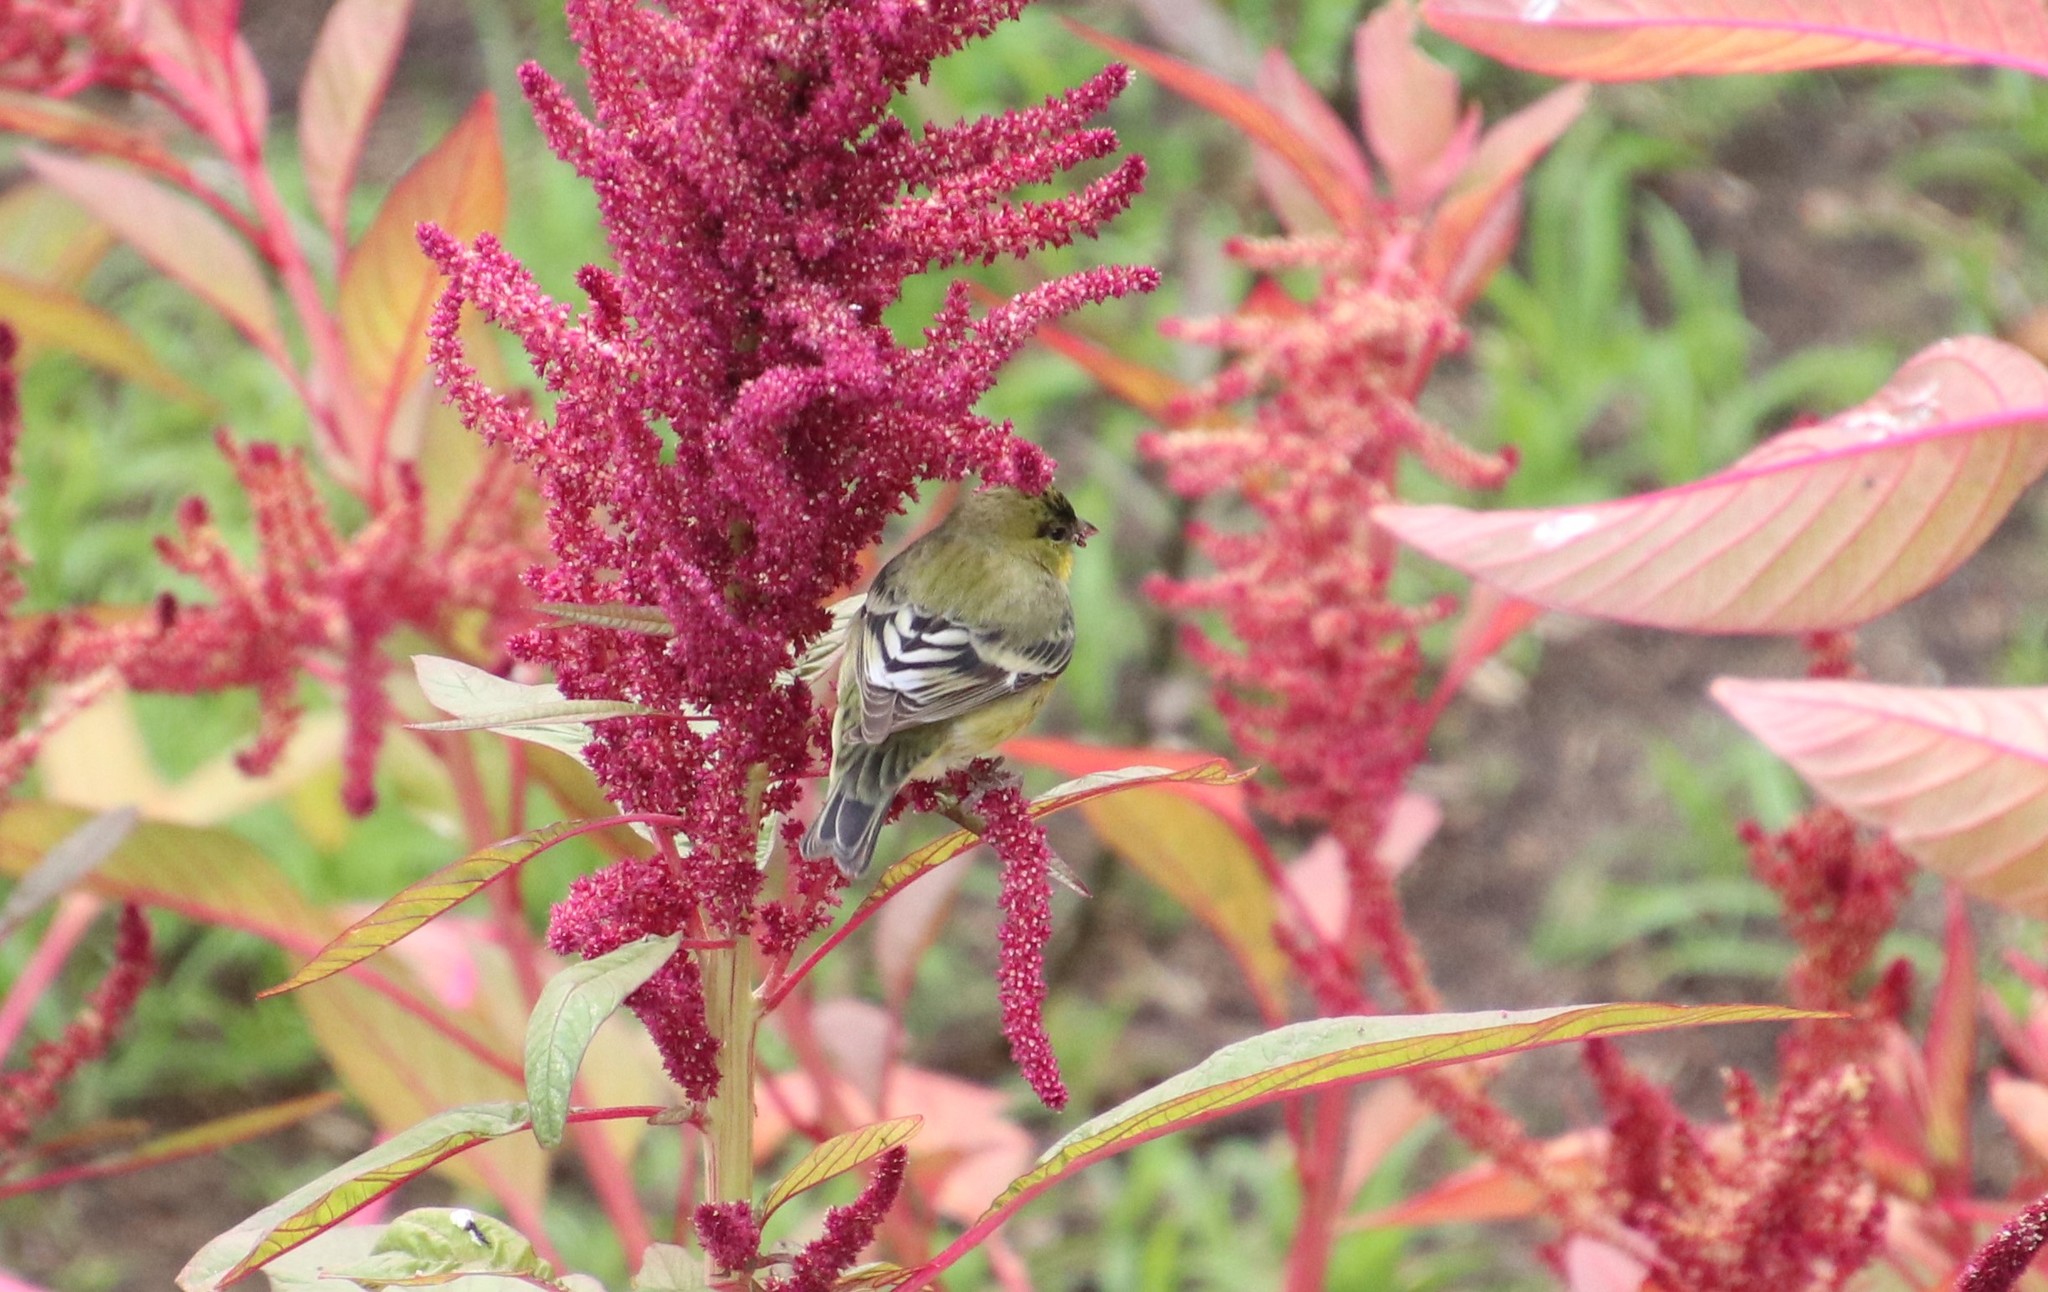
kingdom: Animalia
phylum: Chordata
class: Aves
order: Passeriformes
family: Fringillidae
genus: Spinus
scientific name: Spinus psaltria
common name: Lesser goldfinch
